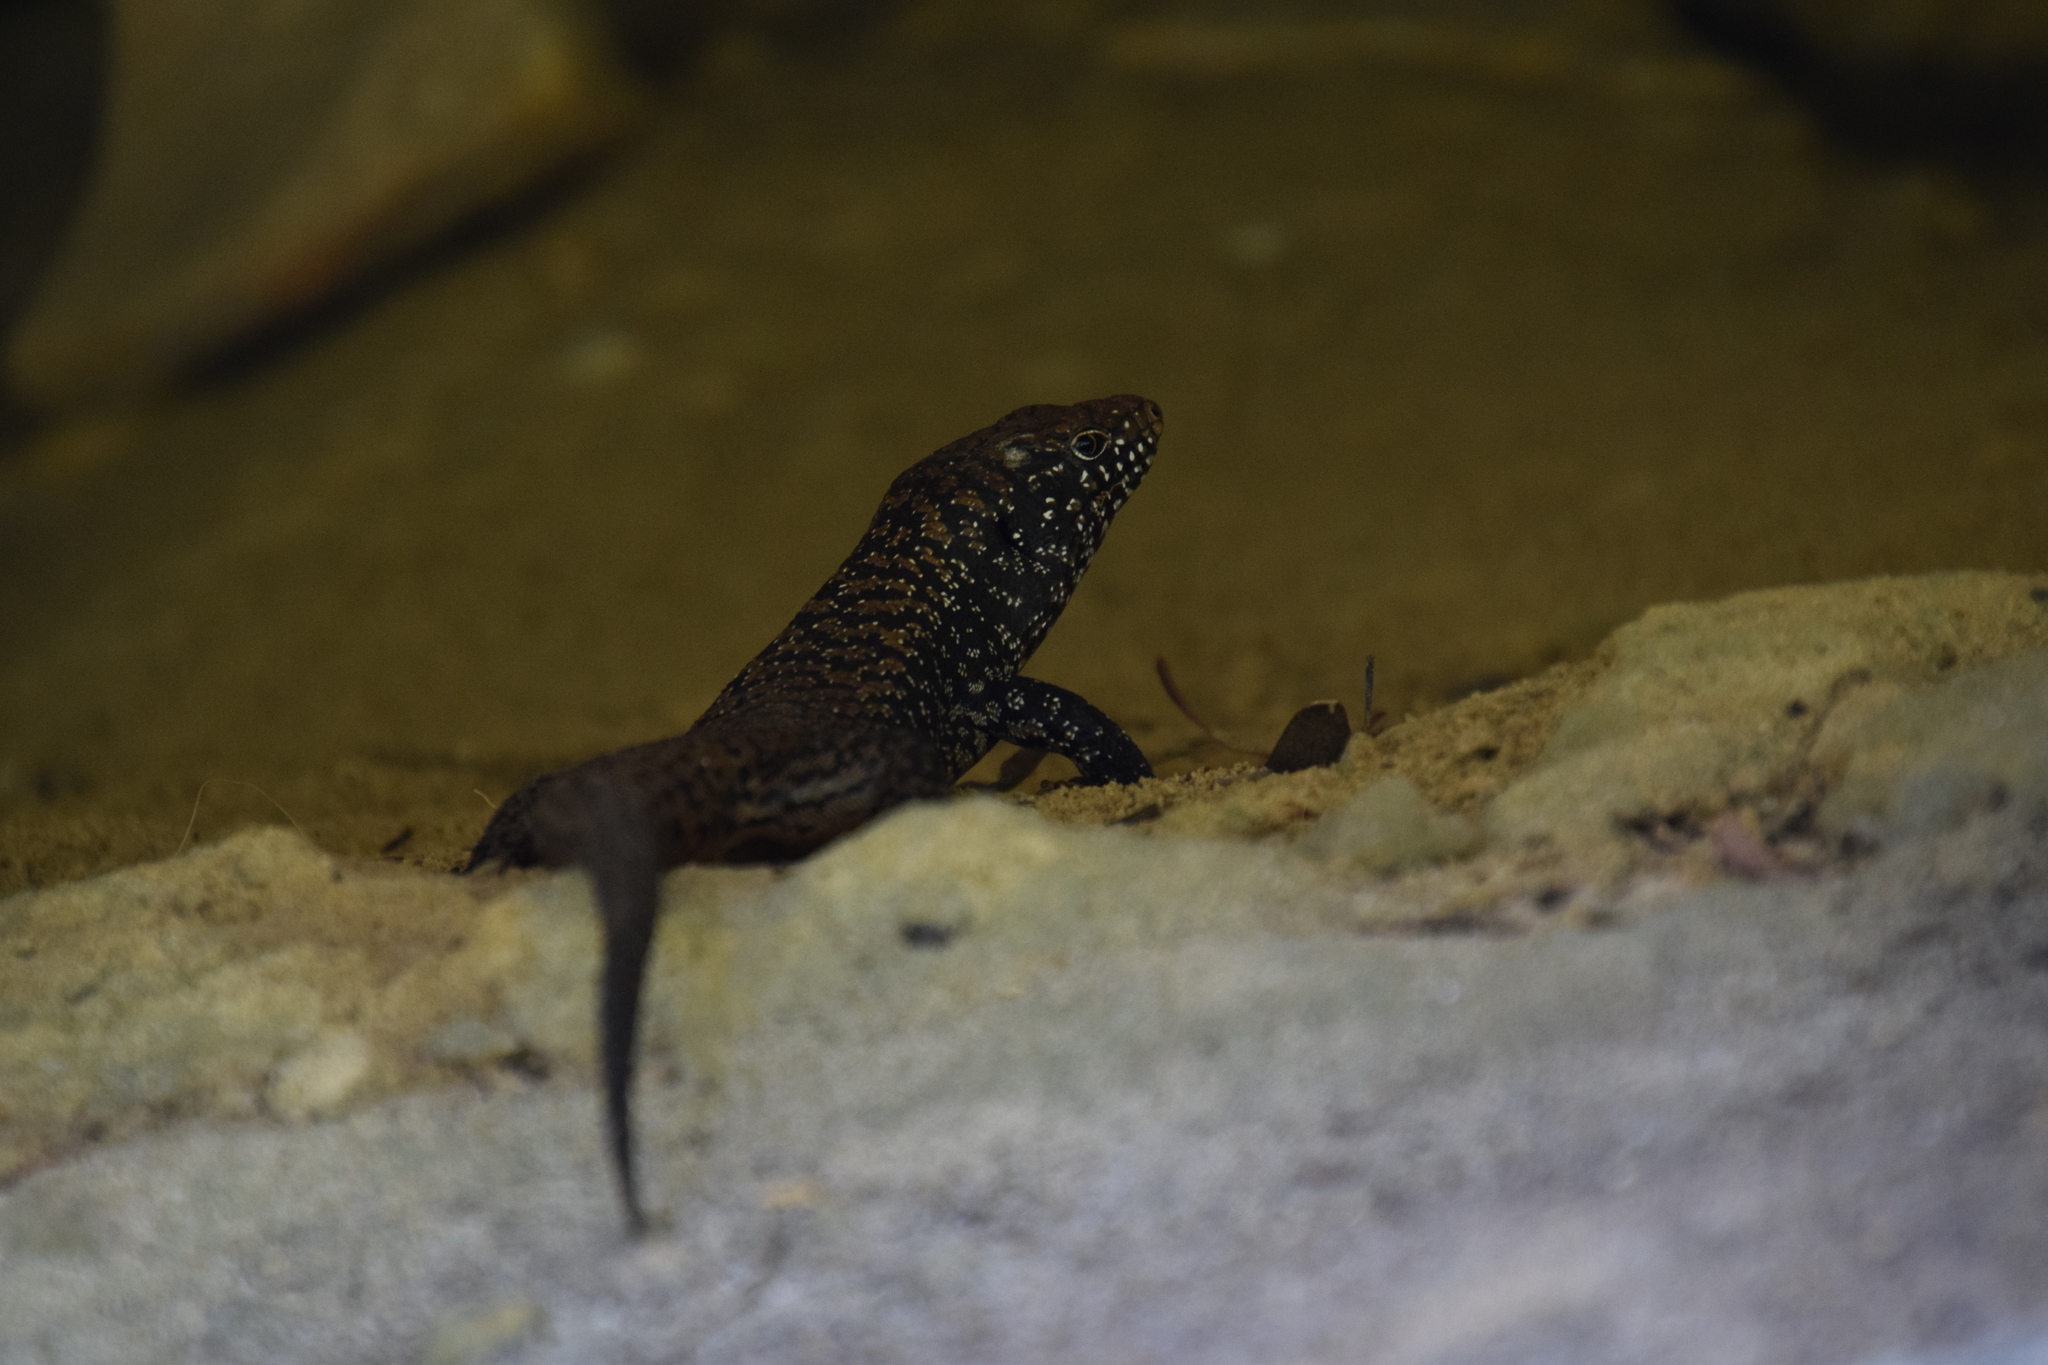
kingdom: Animalia
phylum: Chordata
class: Squamata
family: Scincidae
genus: Egernia
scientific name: Egernia cunninghami
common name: Cunningham's skink
